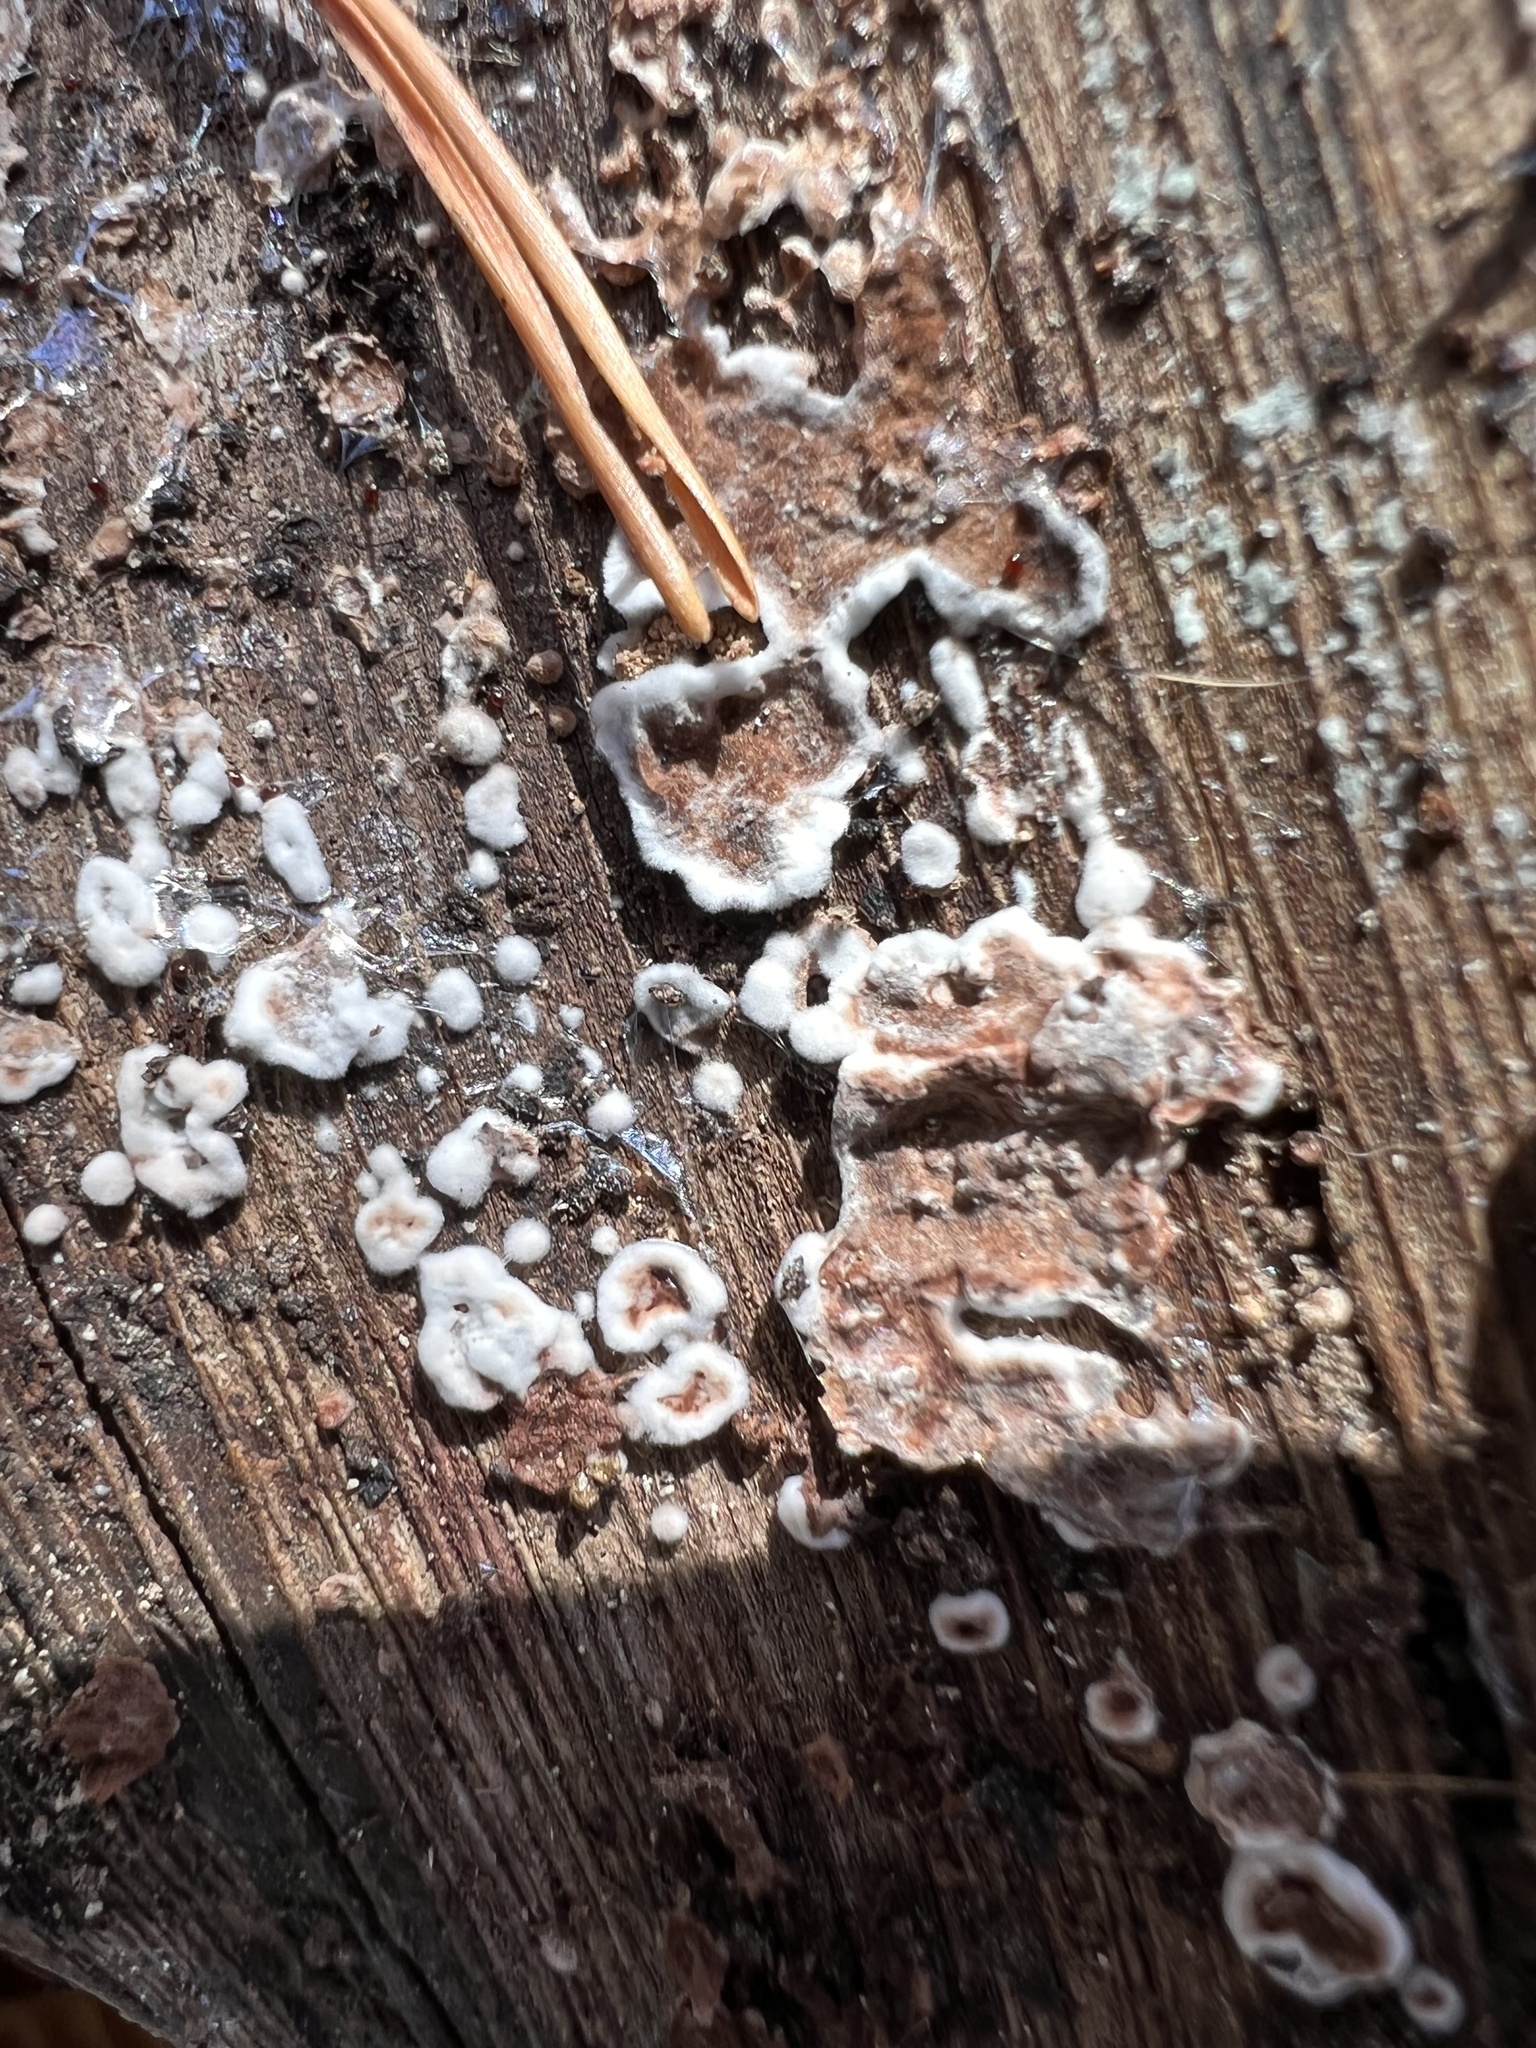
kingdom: Fungi
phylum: Basidiomycota
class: Agaricomycetes
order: Russulales
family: Peniophoraceae
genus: Peniophora
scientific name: Peniophora albobadia
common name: Giraffe spots
